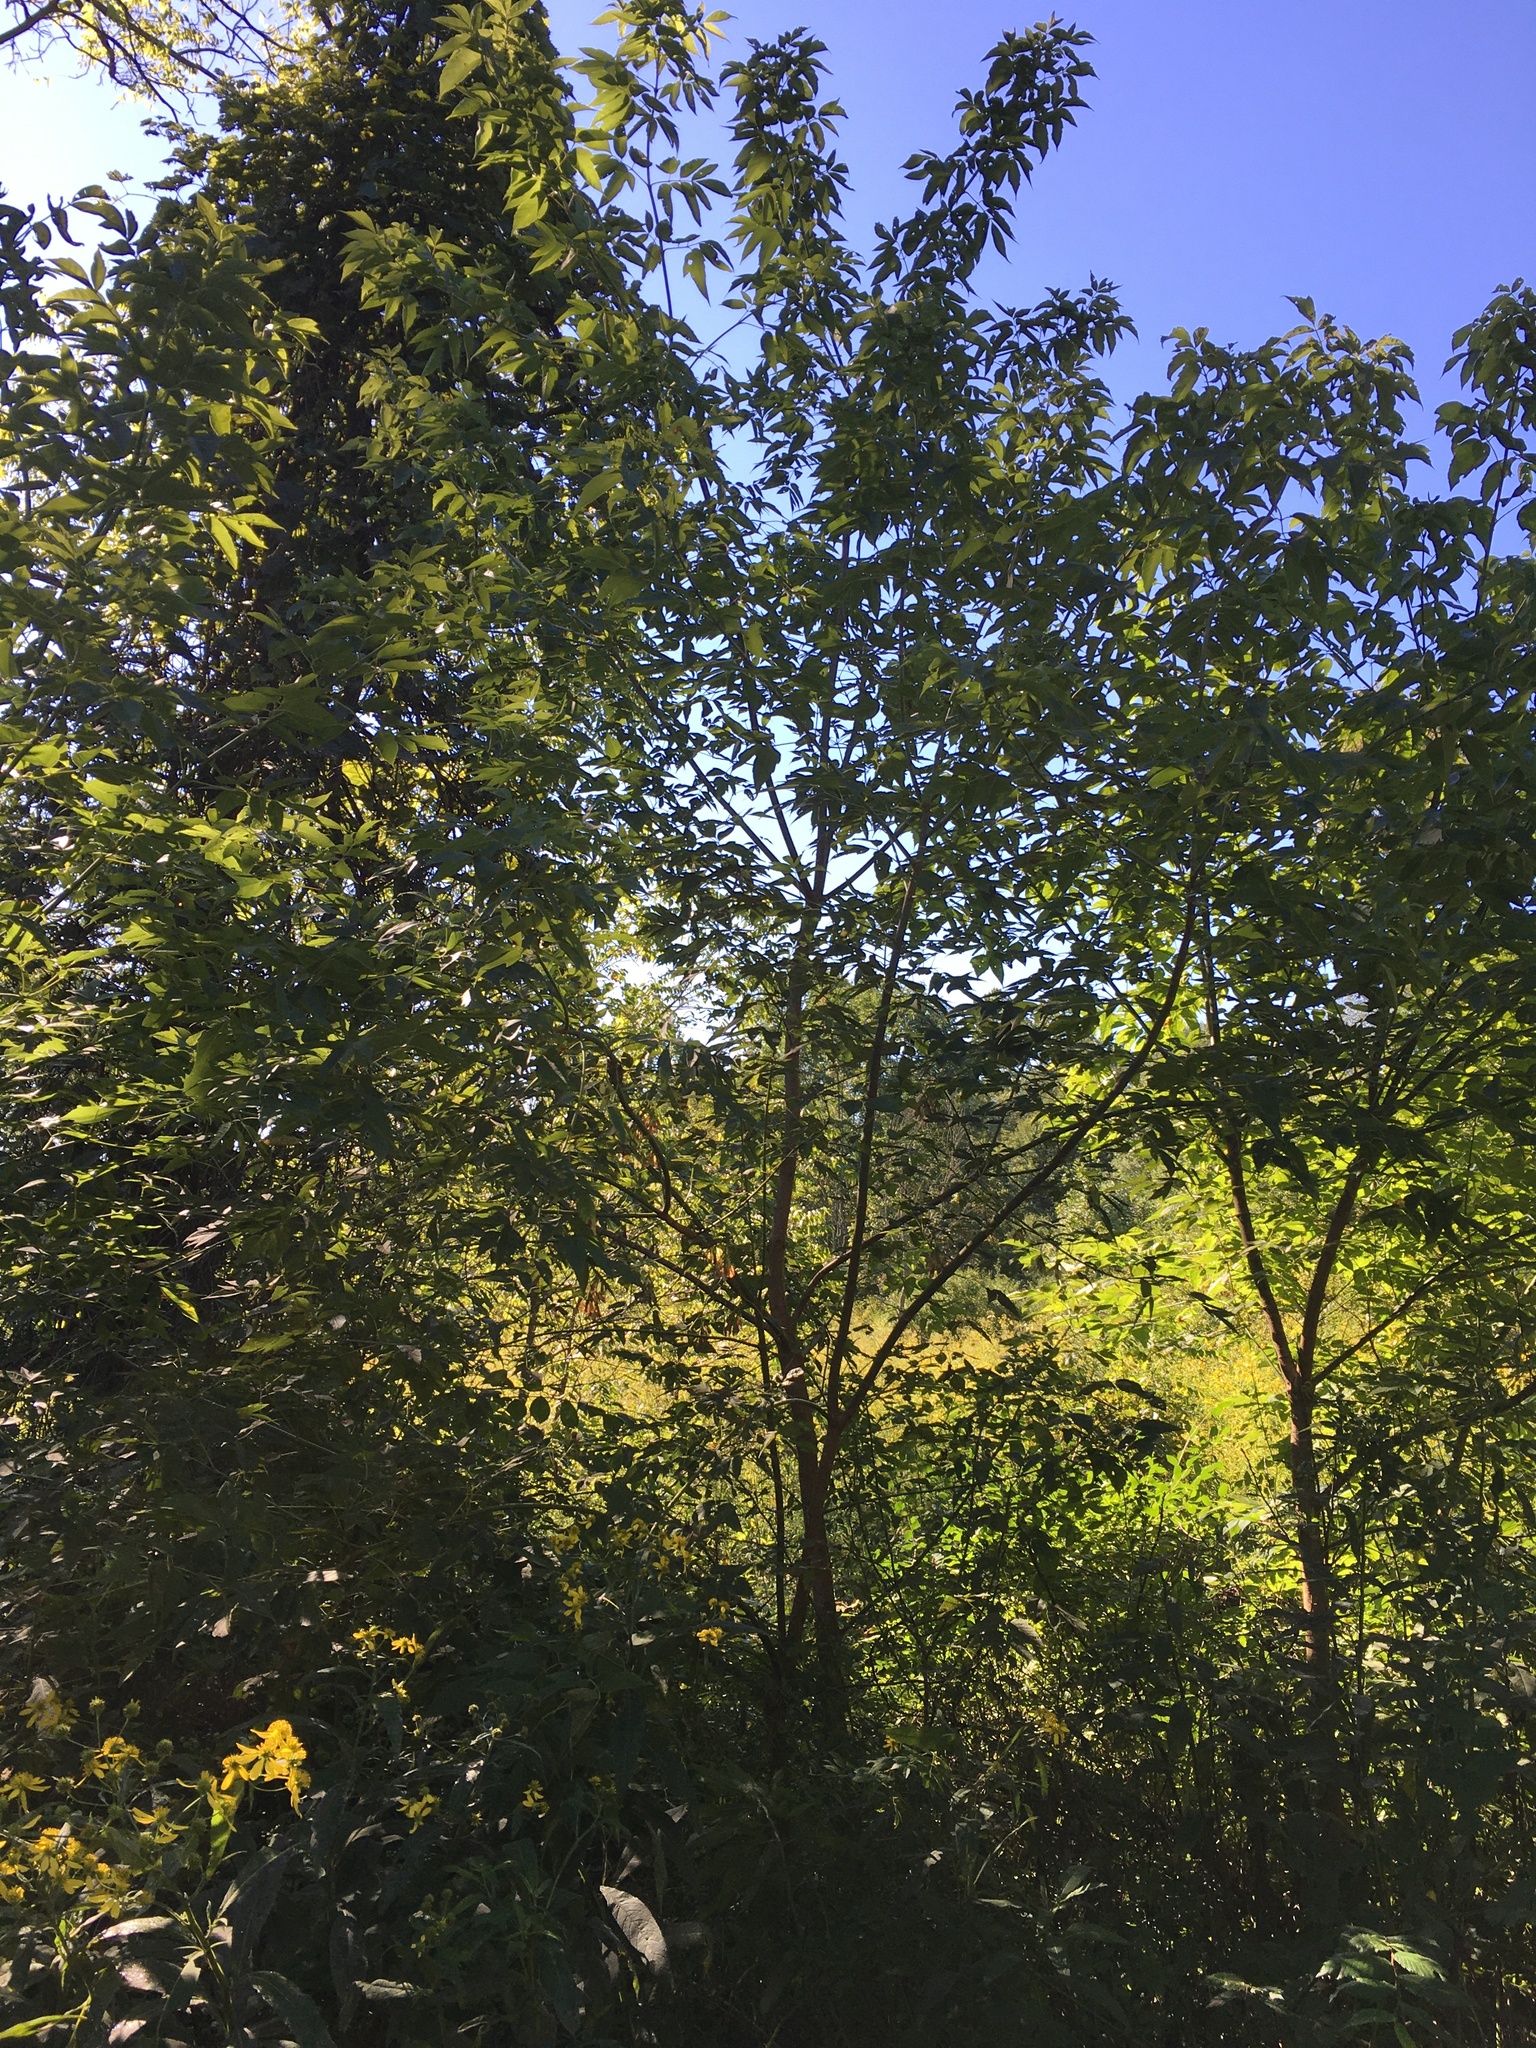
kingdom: Plantae
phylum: Tracheophyta
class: Magnoliopsida
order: Sapindales
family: Sapindaceae
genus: Acer
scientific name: Acer negundo
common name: Ashleaf maple
